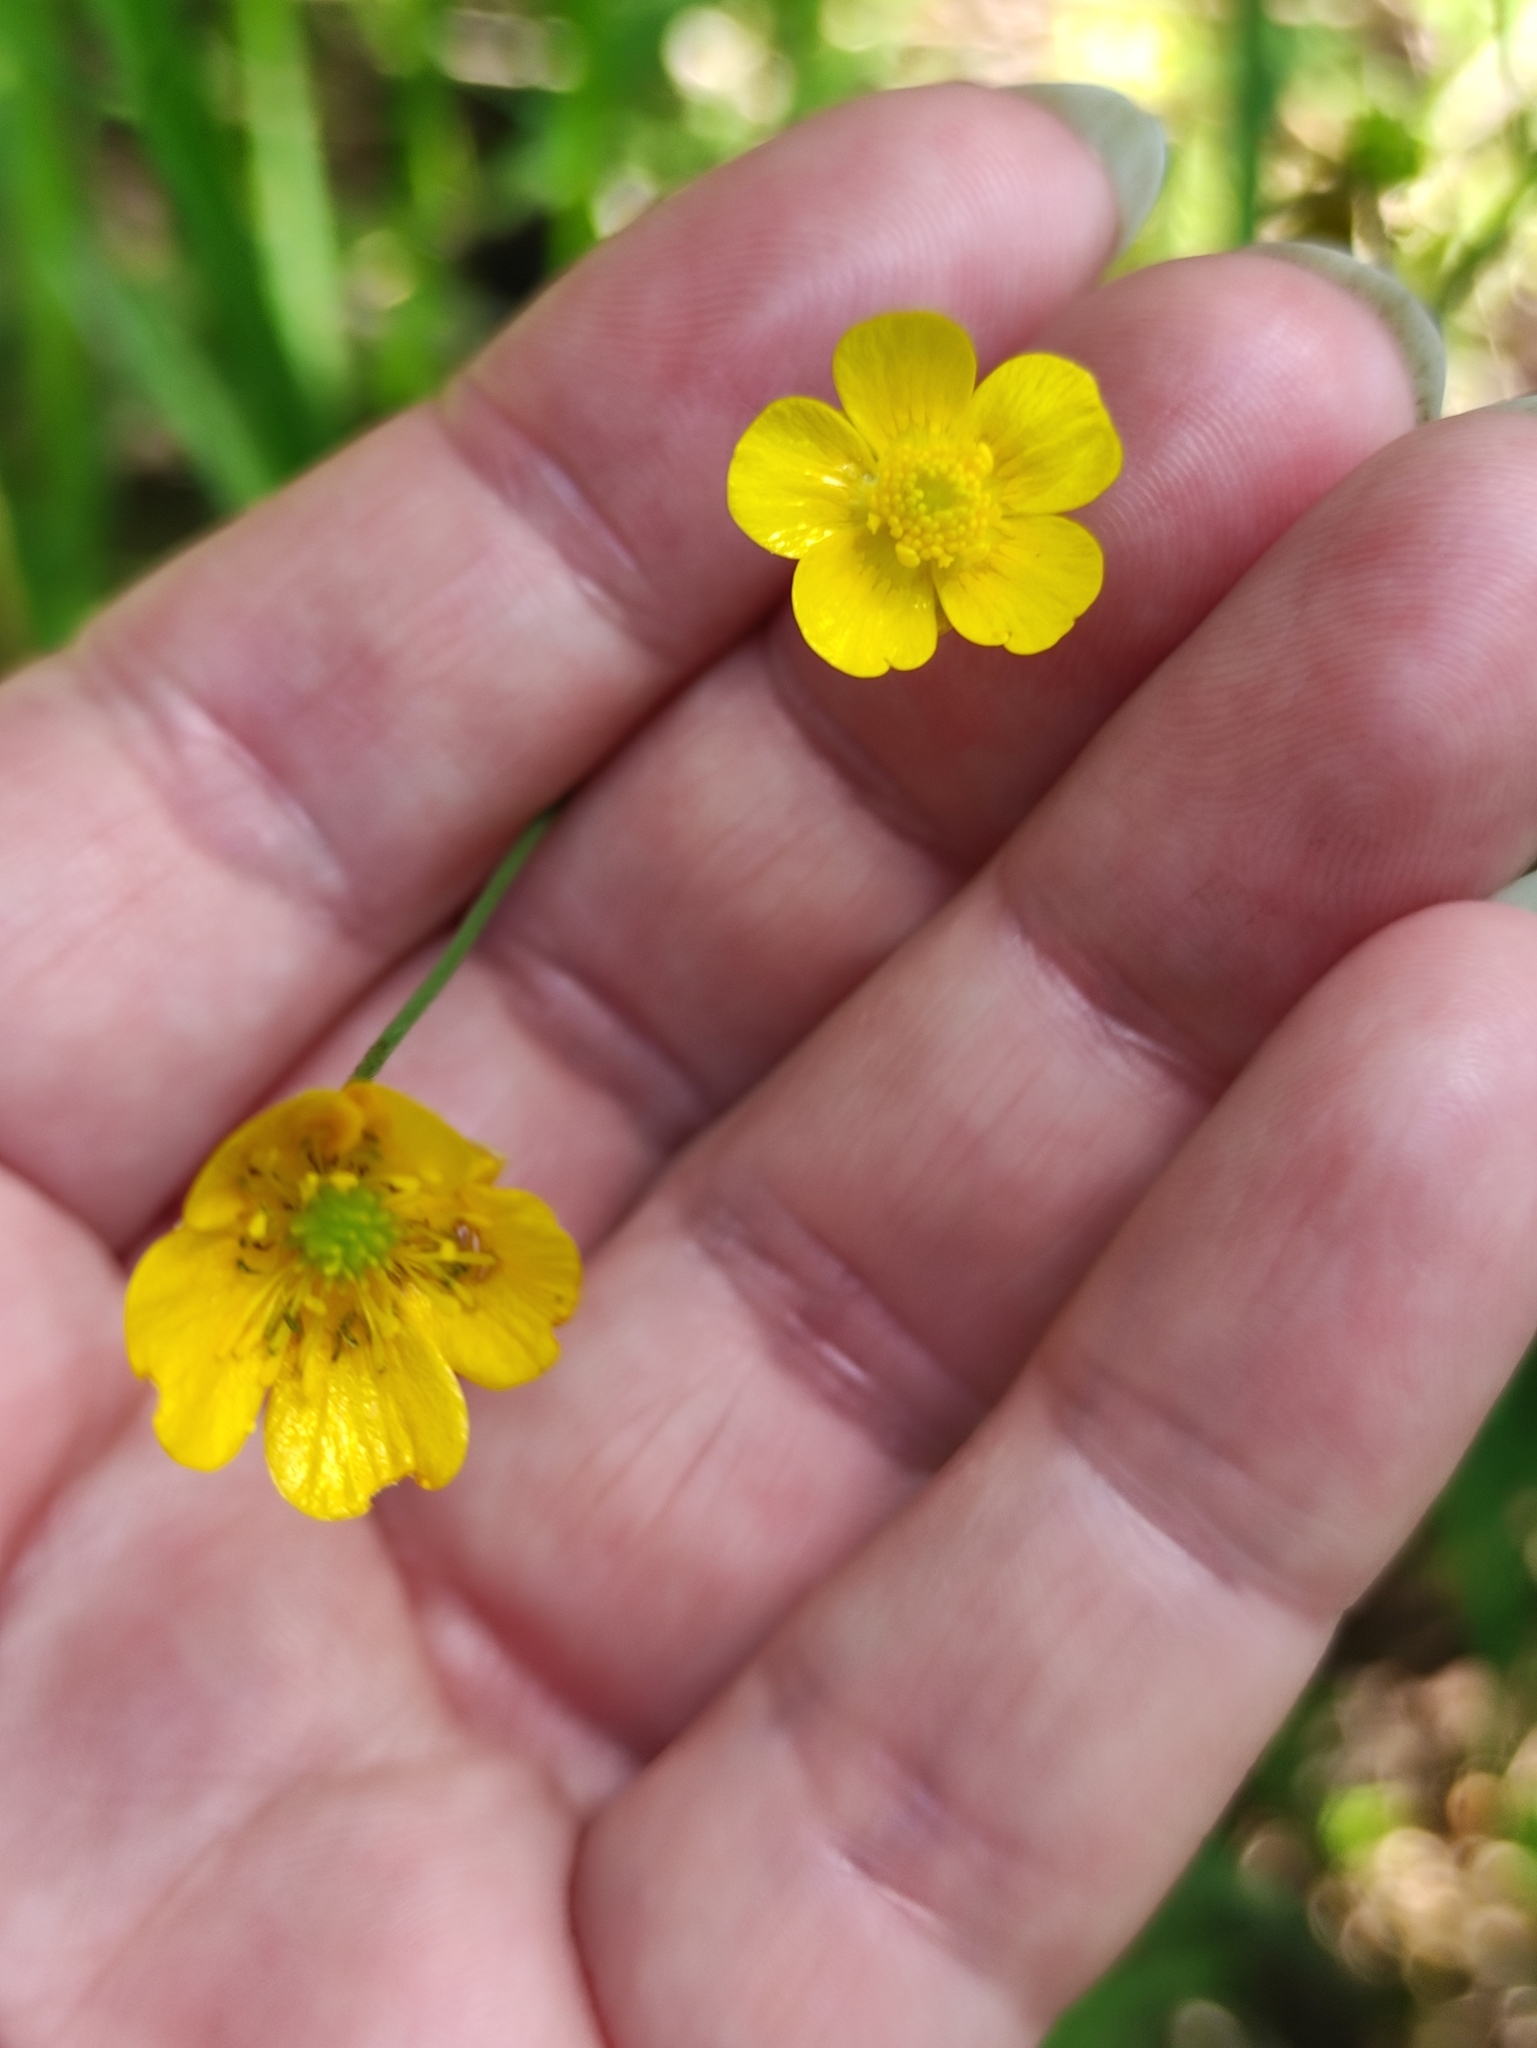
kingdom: Plantae
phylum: Tracheophyta
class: Magnoliopsida
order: Ranunculales
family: Ranunculaceae
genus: Ranunculus
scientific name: Ranunculus acris
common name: Meadow buttercup
